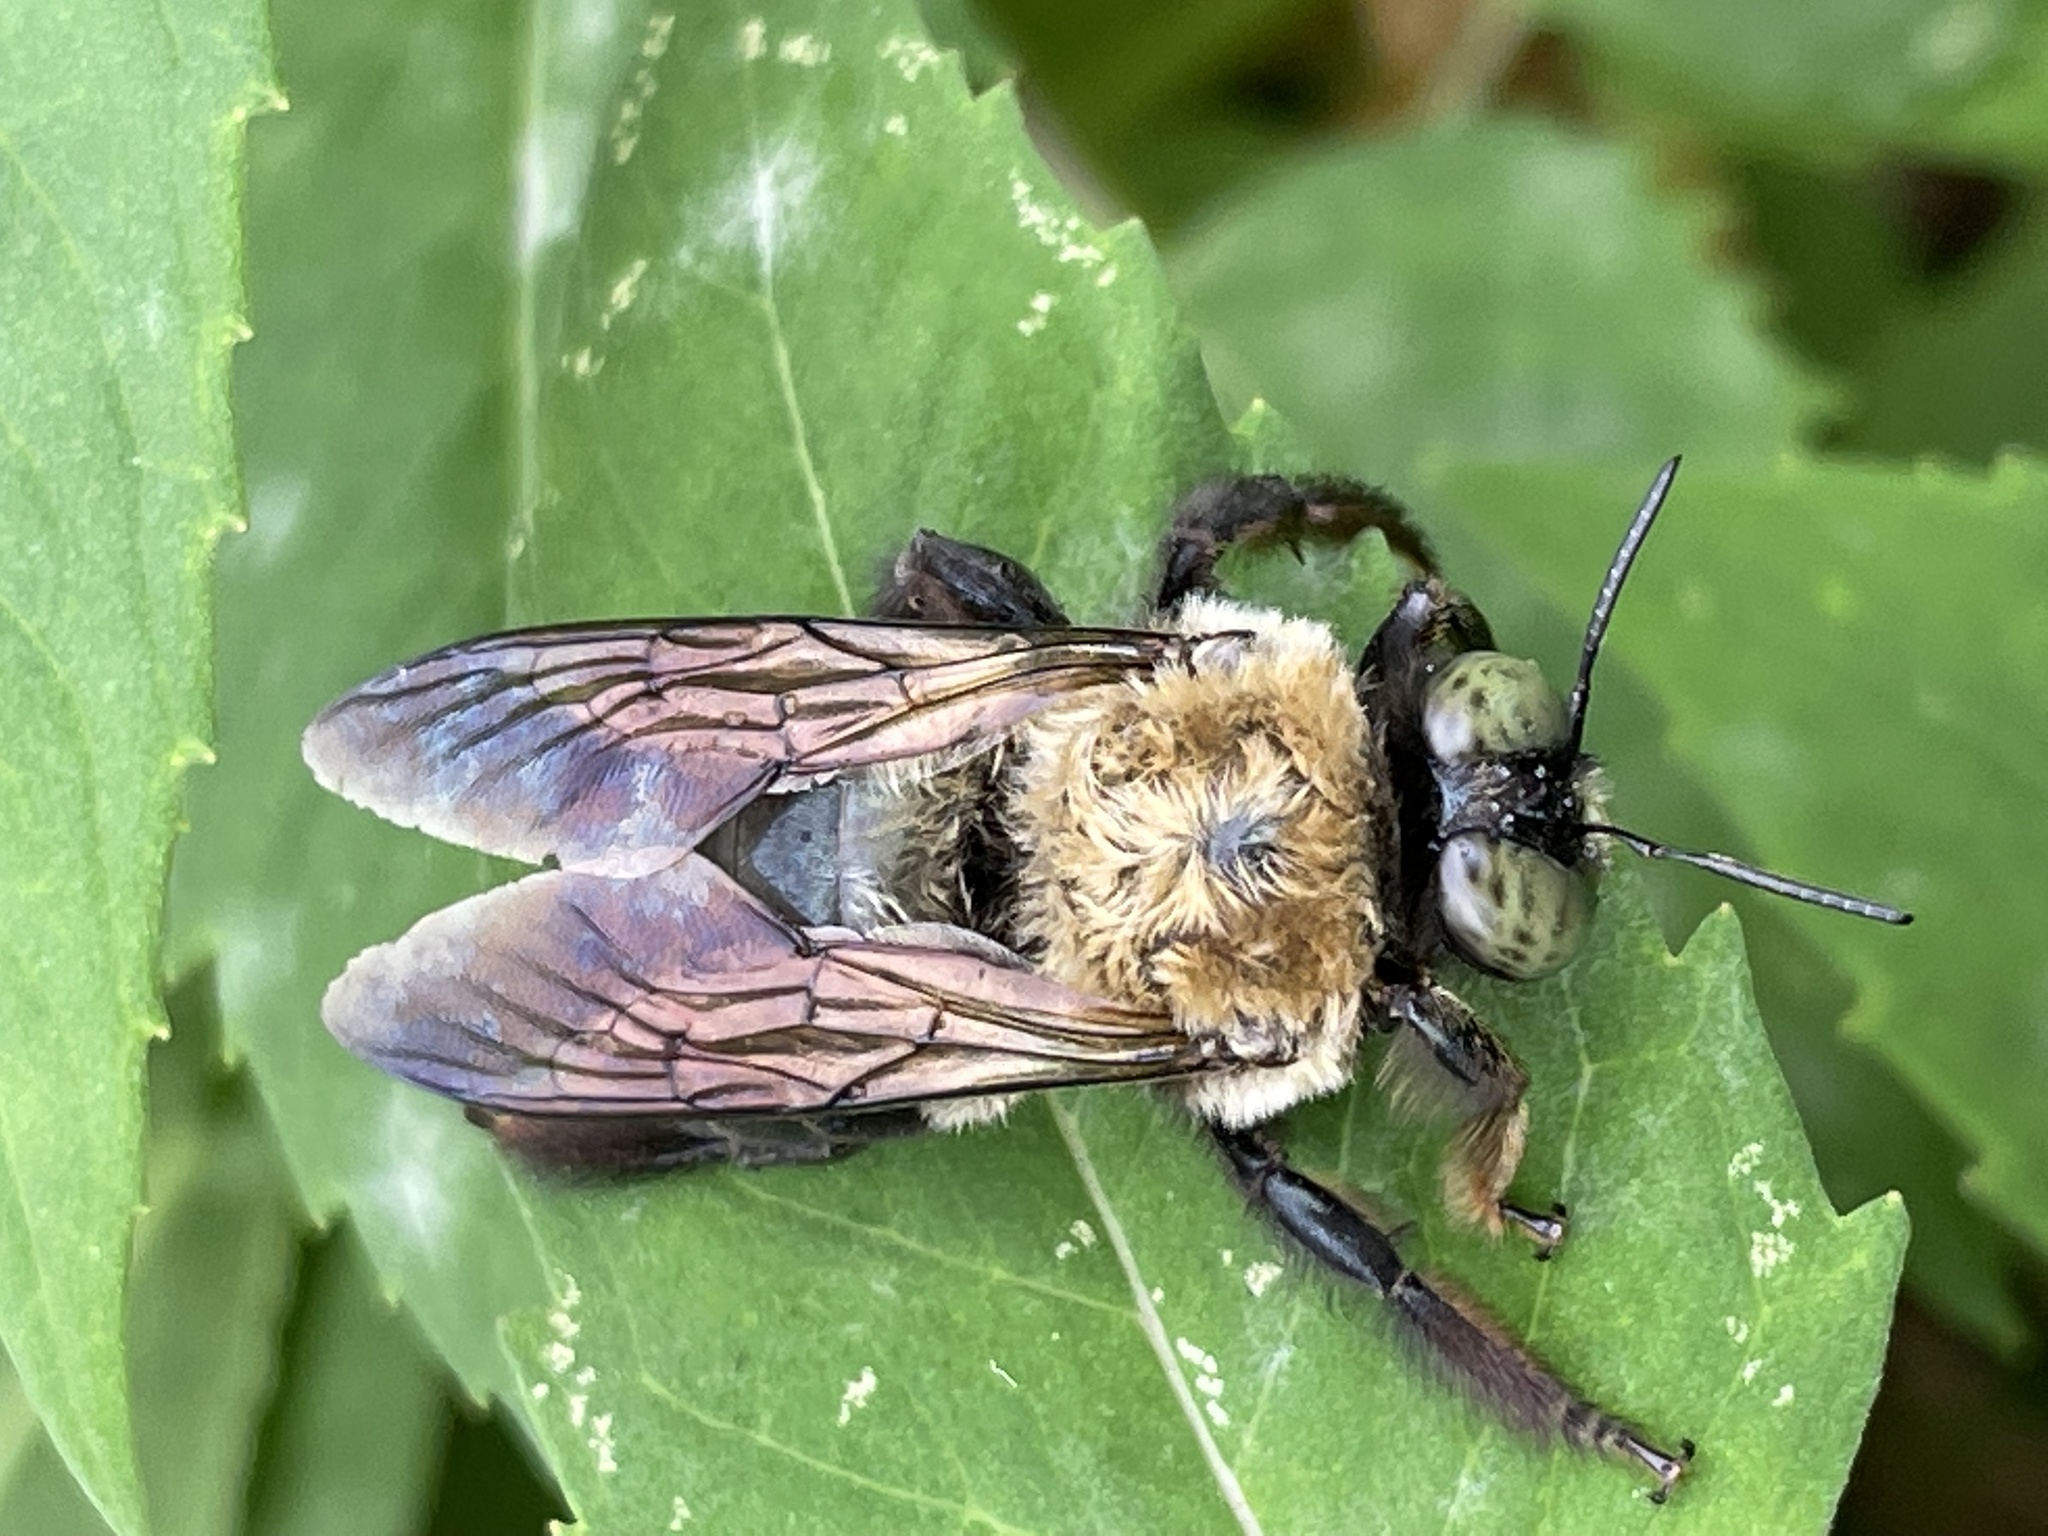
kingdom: Animalia
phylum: Arthropoda
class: Insecta
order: Hymenoptera
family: Apidae
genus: Xylocopa
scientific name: Xylocopa virginica
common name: Carpenter bee
